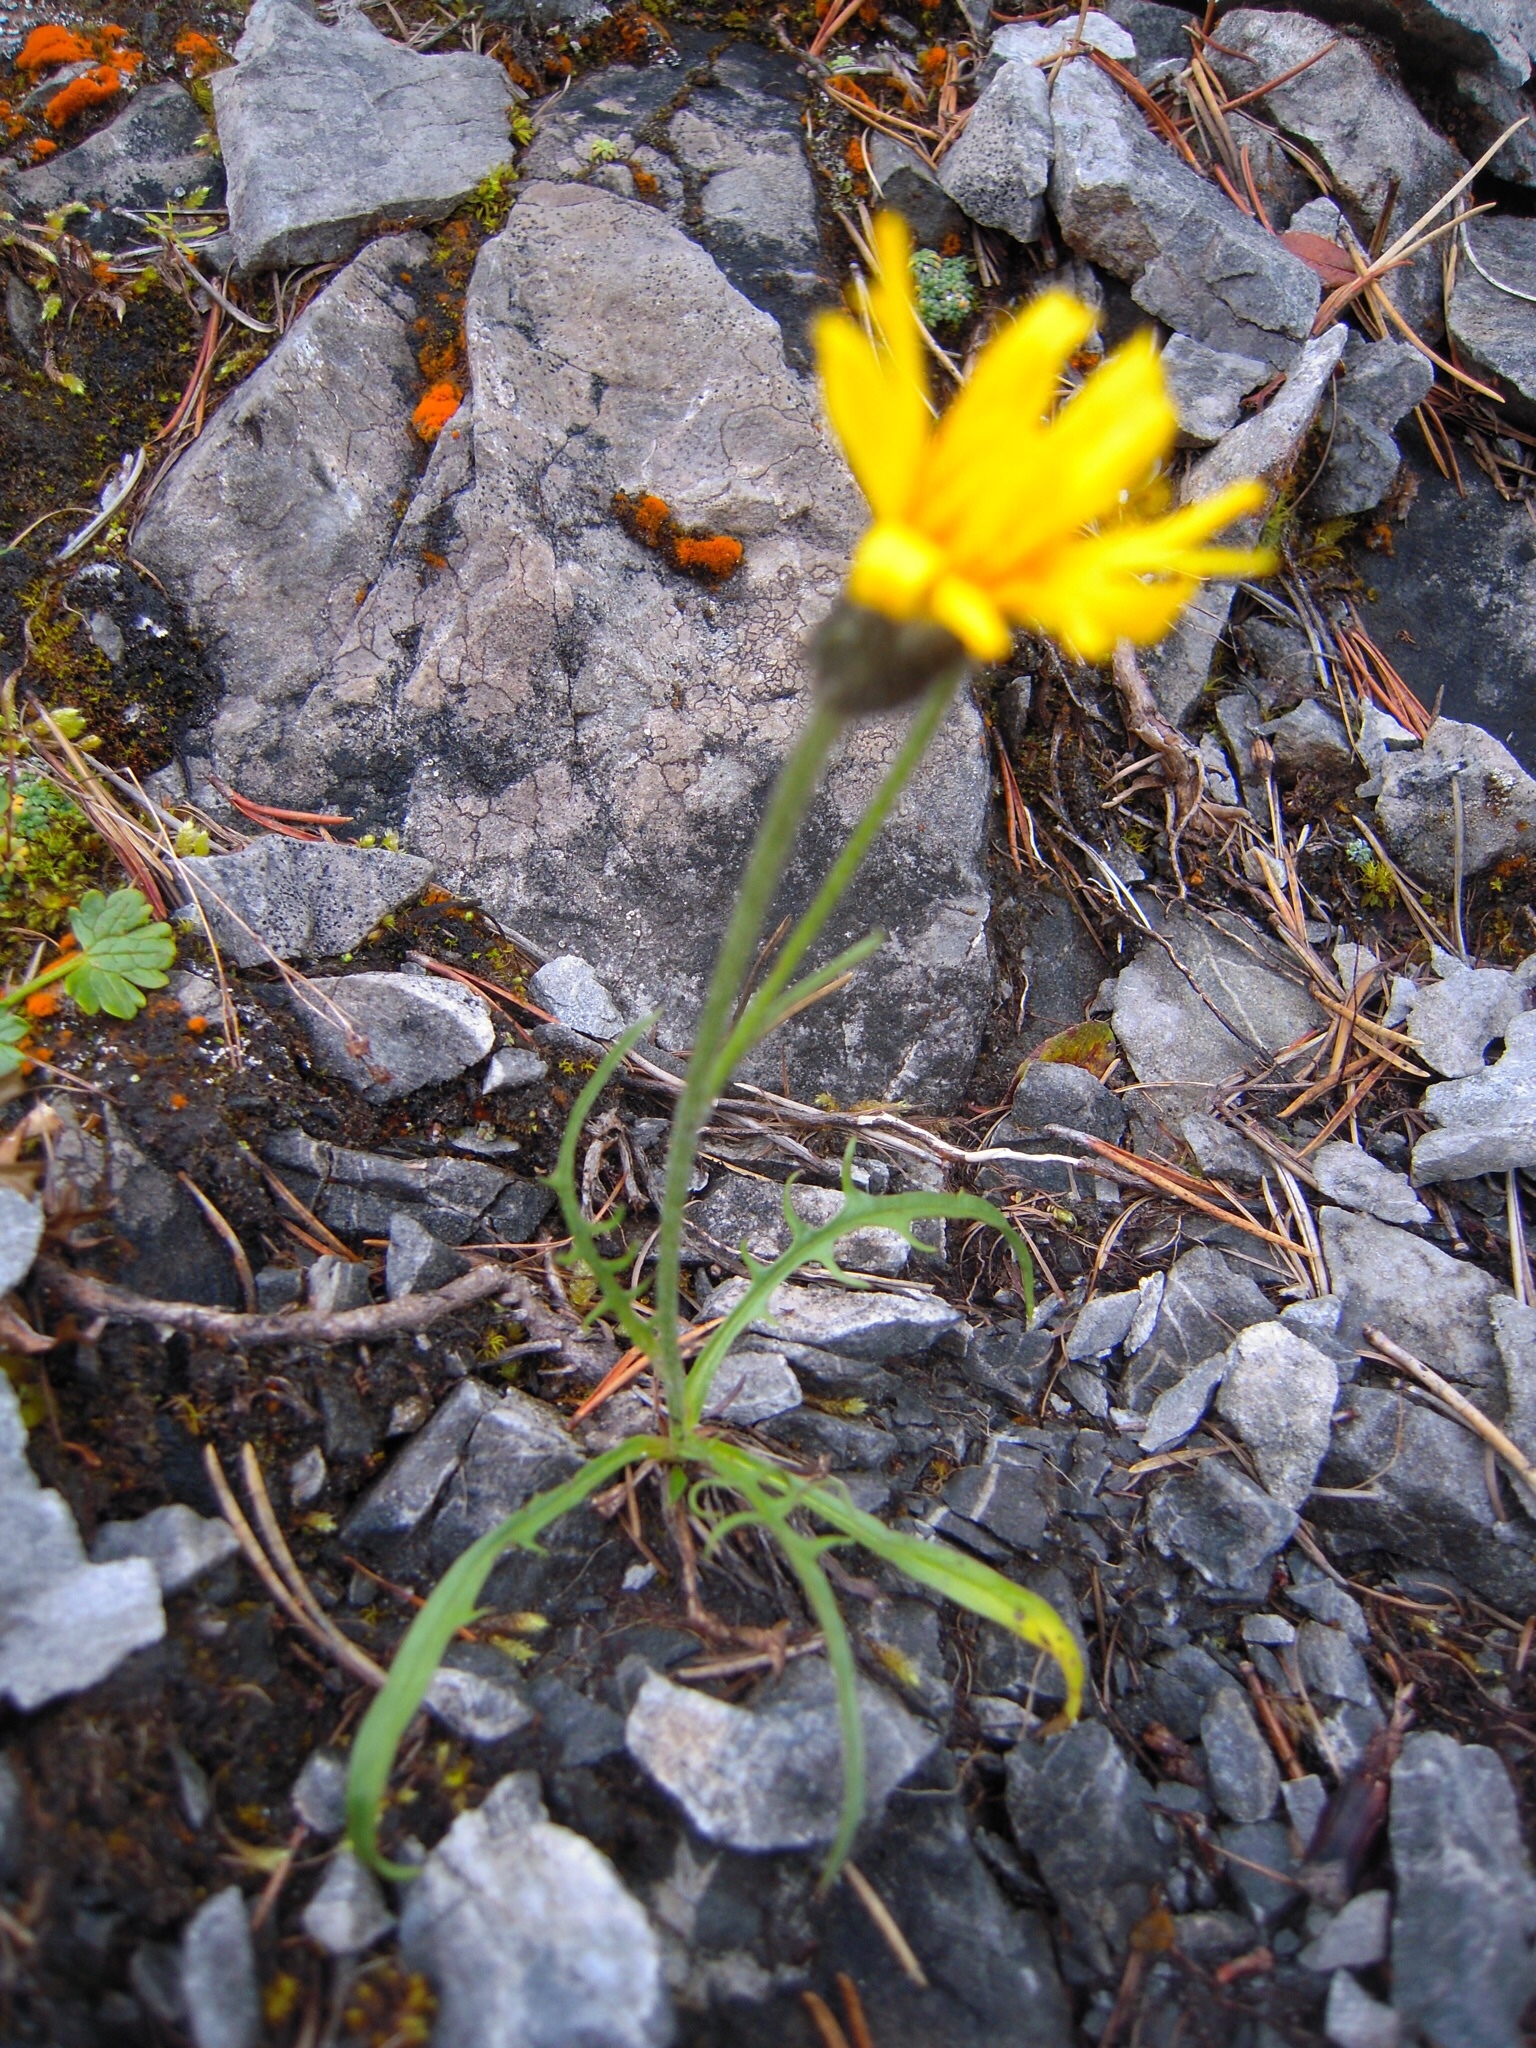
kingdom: Plantae
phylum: Tracheophyta
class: Magnoliopsida
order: Asterales
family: Asteraceae
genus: Crepis
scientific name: Crepis jacquinii
